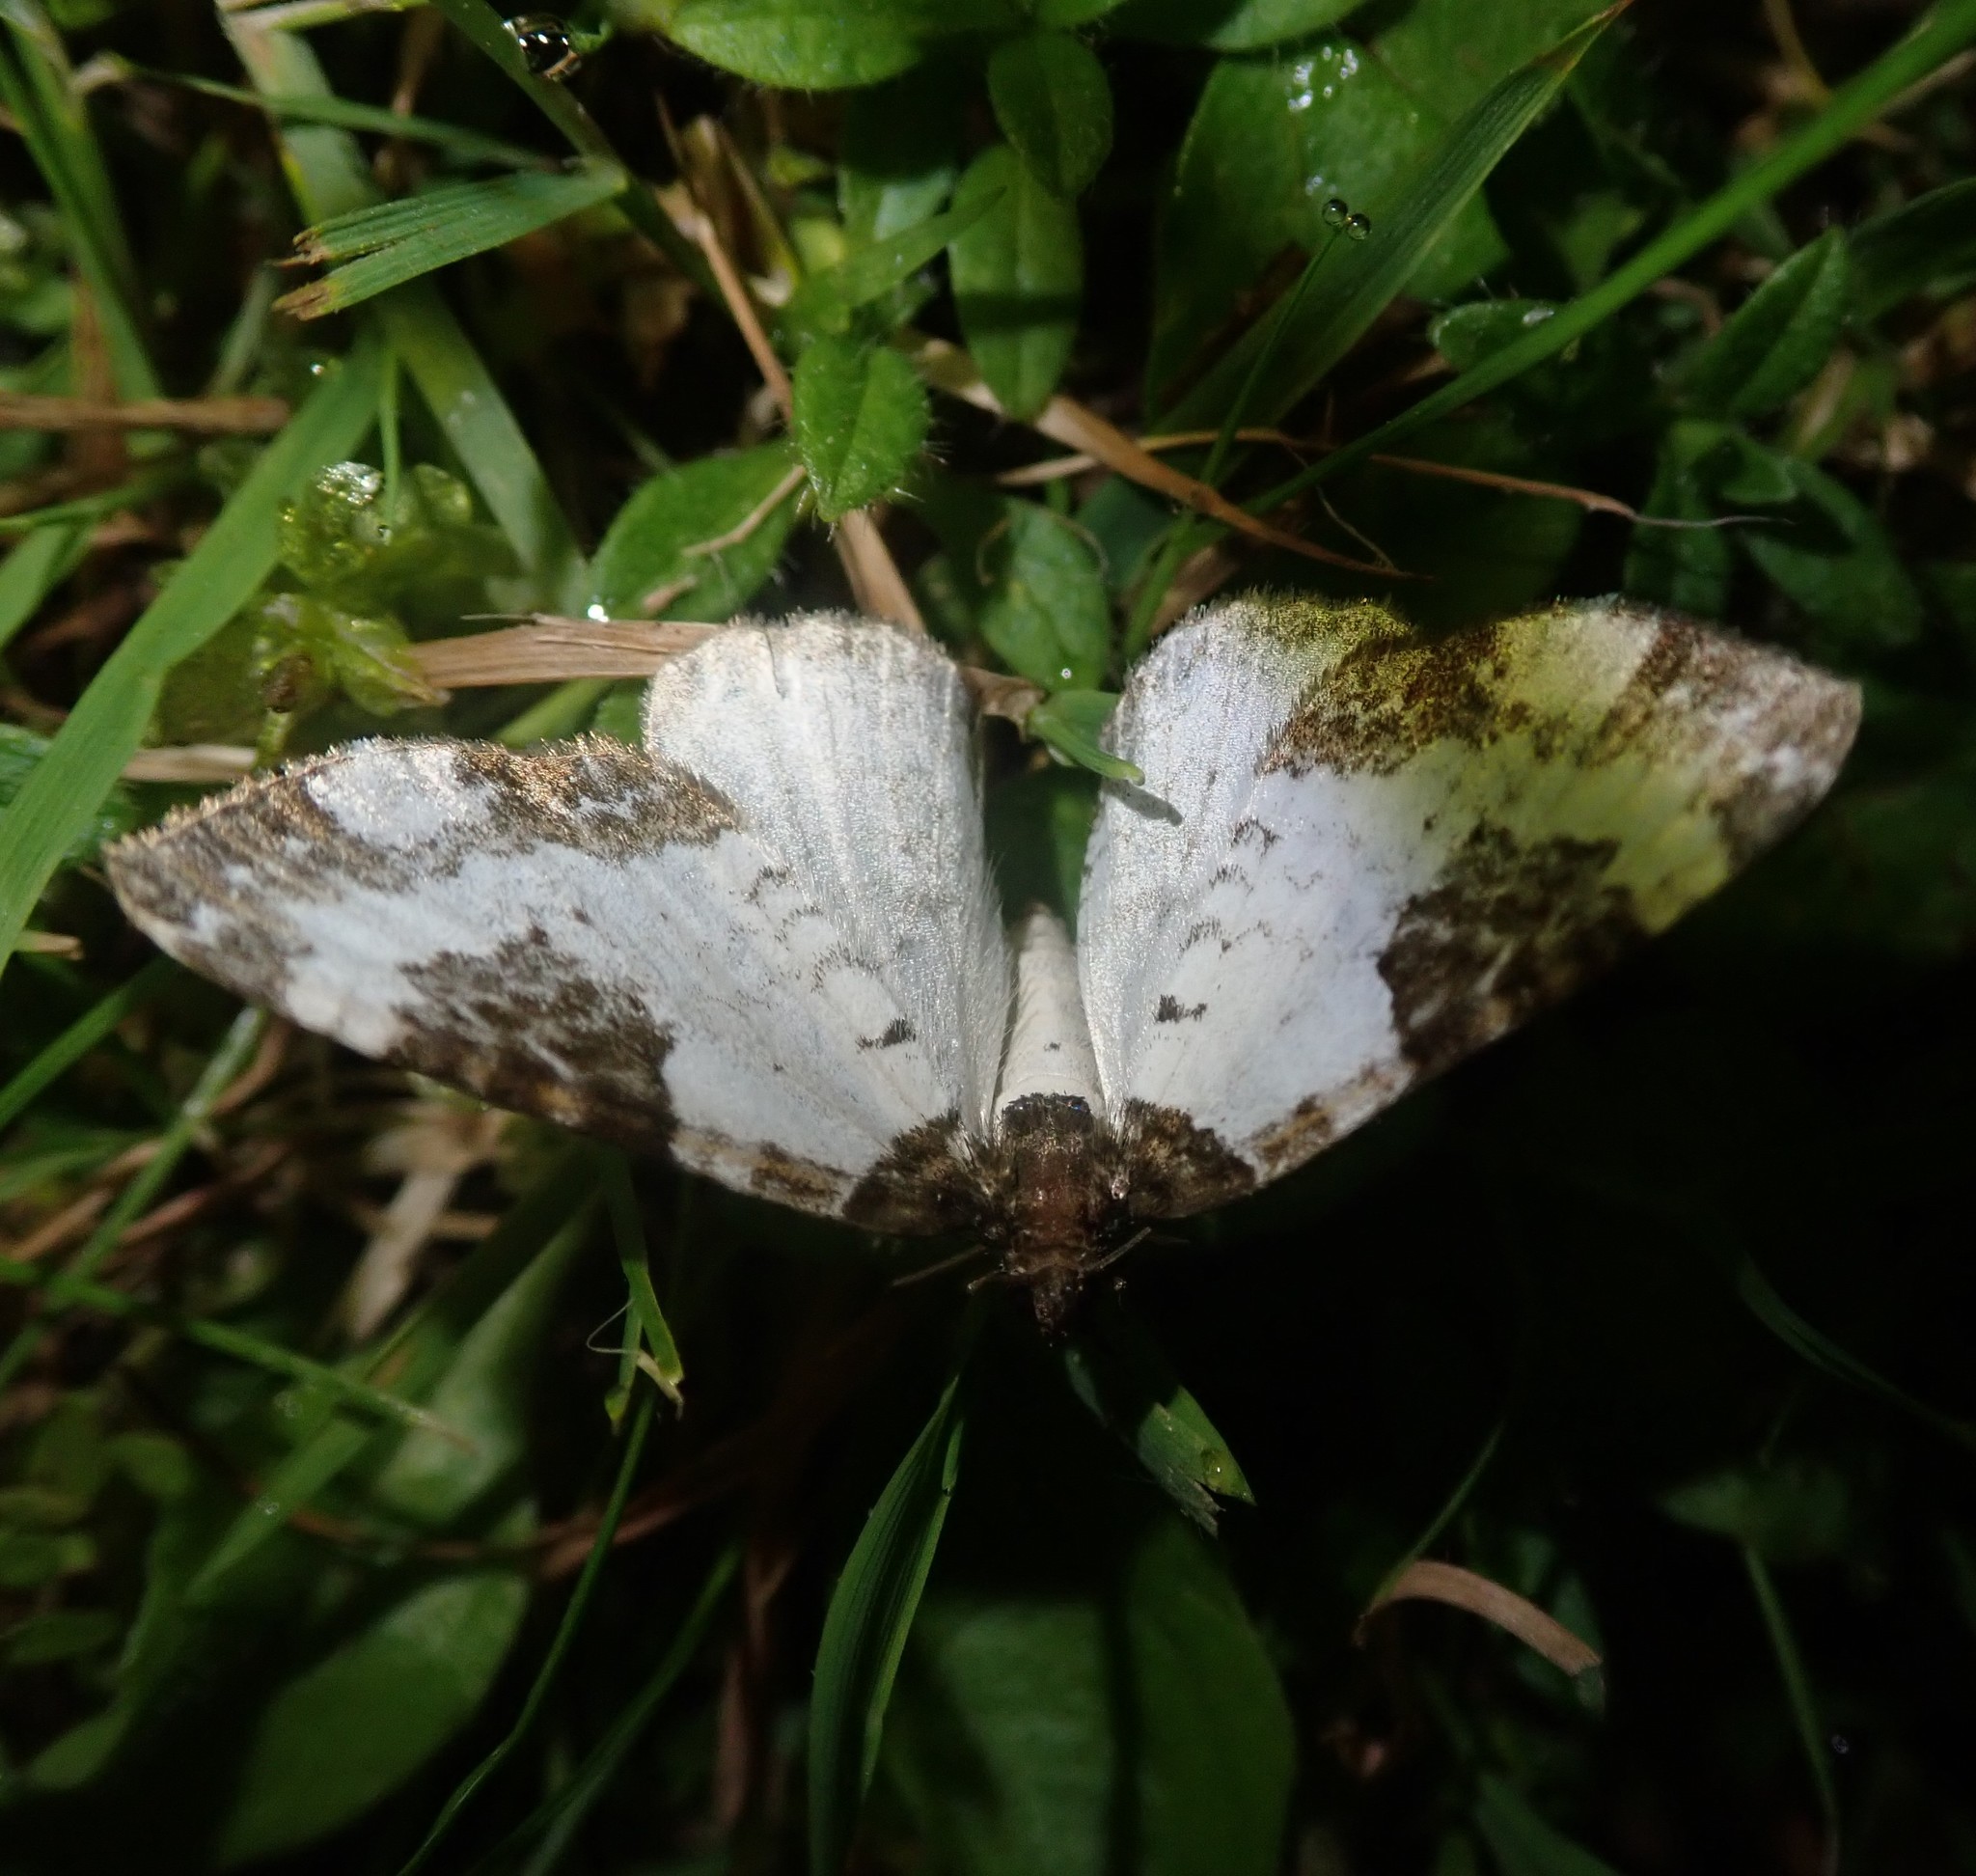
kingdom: Animalia
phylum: Arthropoda
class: Insecta
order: Lepidoptera
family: Geometridae
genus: Melanthia
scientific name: Melanthia procellata
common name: Pretty chalk carpet
